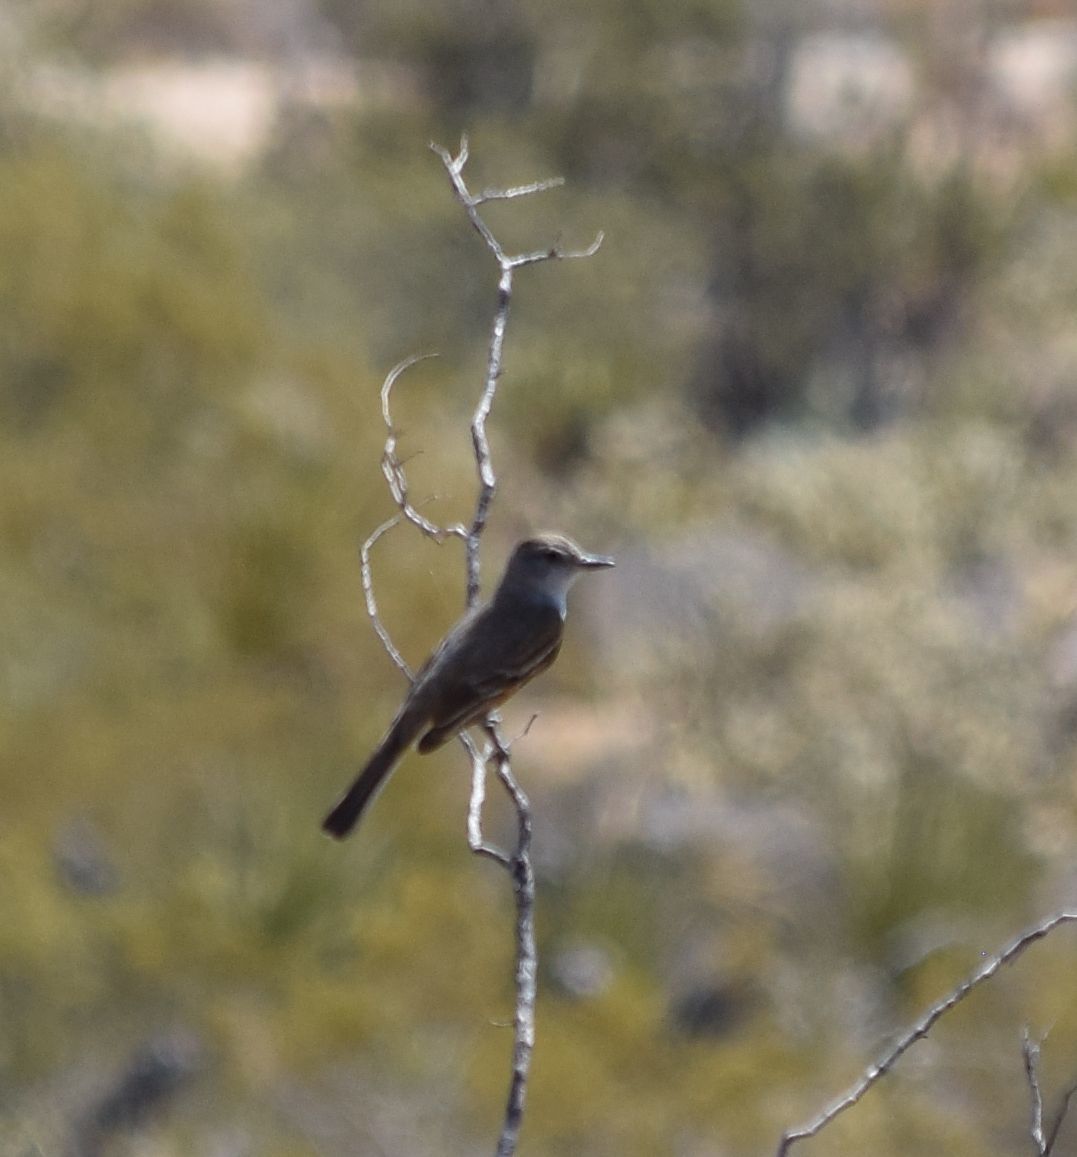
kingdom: Animalia
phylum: Chordata
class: Aves
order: Passeriformes
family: Tyrannidae
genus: Myiarchus
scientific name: Myiarchus cinerascens
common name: Ash-throated flycatcher
